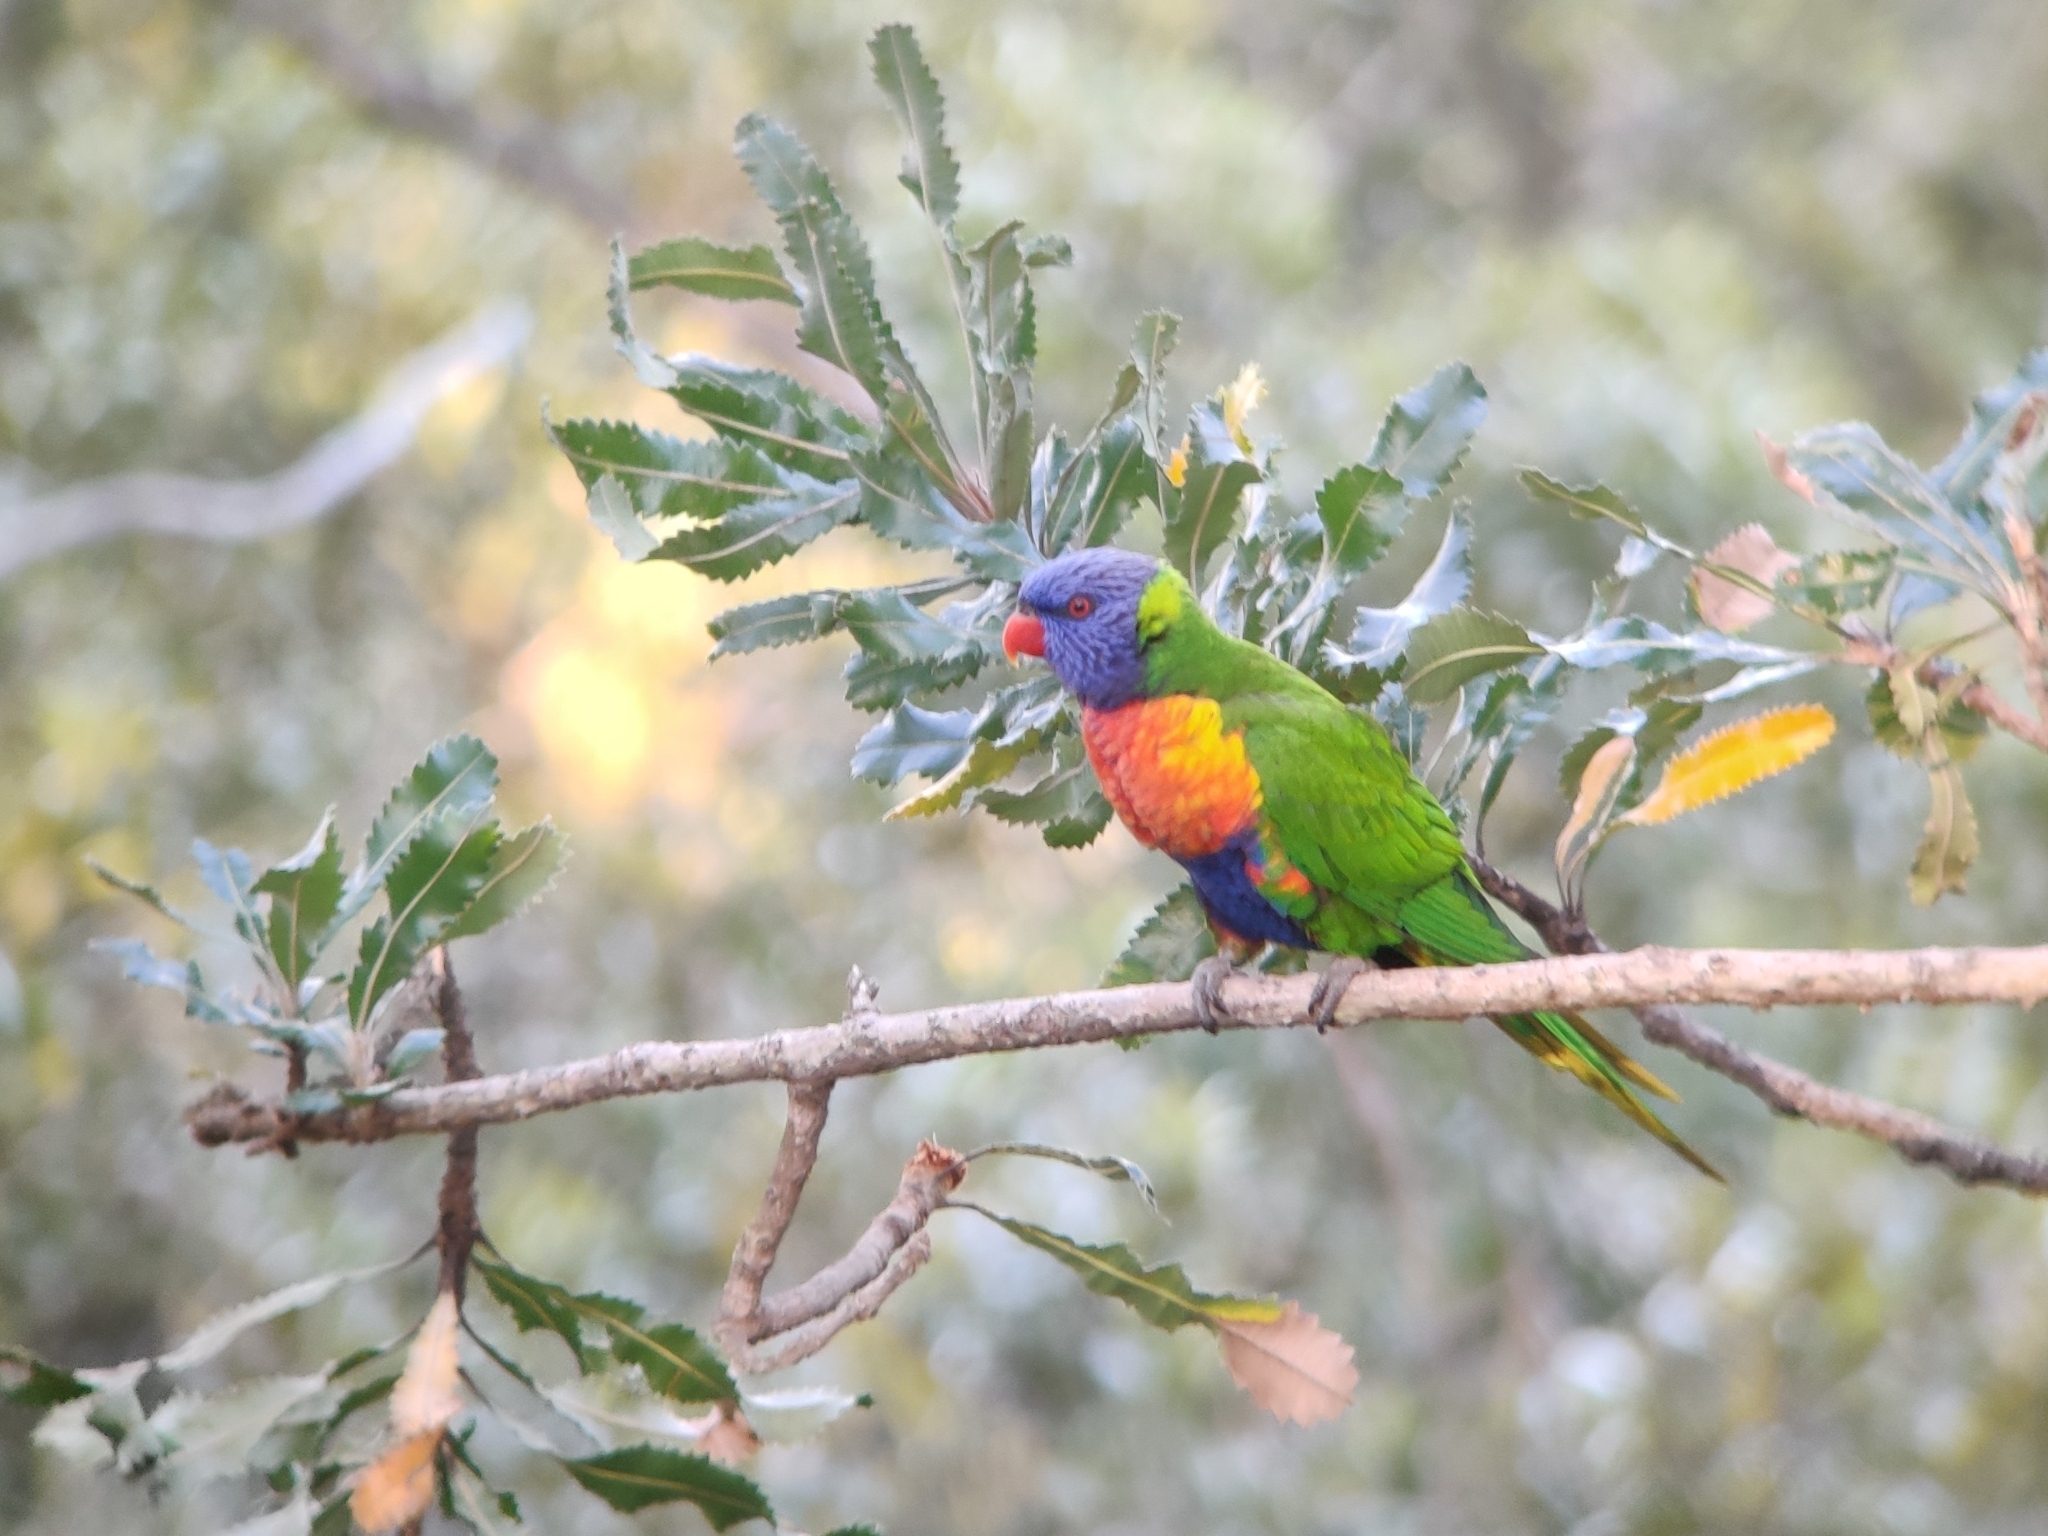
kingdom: Animalia
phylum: Chordata
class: Aves
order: Psittaciformes
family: Psittacidae
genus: Trichoglossus
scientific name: Trichoglossus haematodus
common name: Coconut lorikeet
